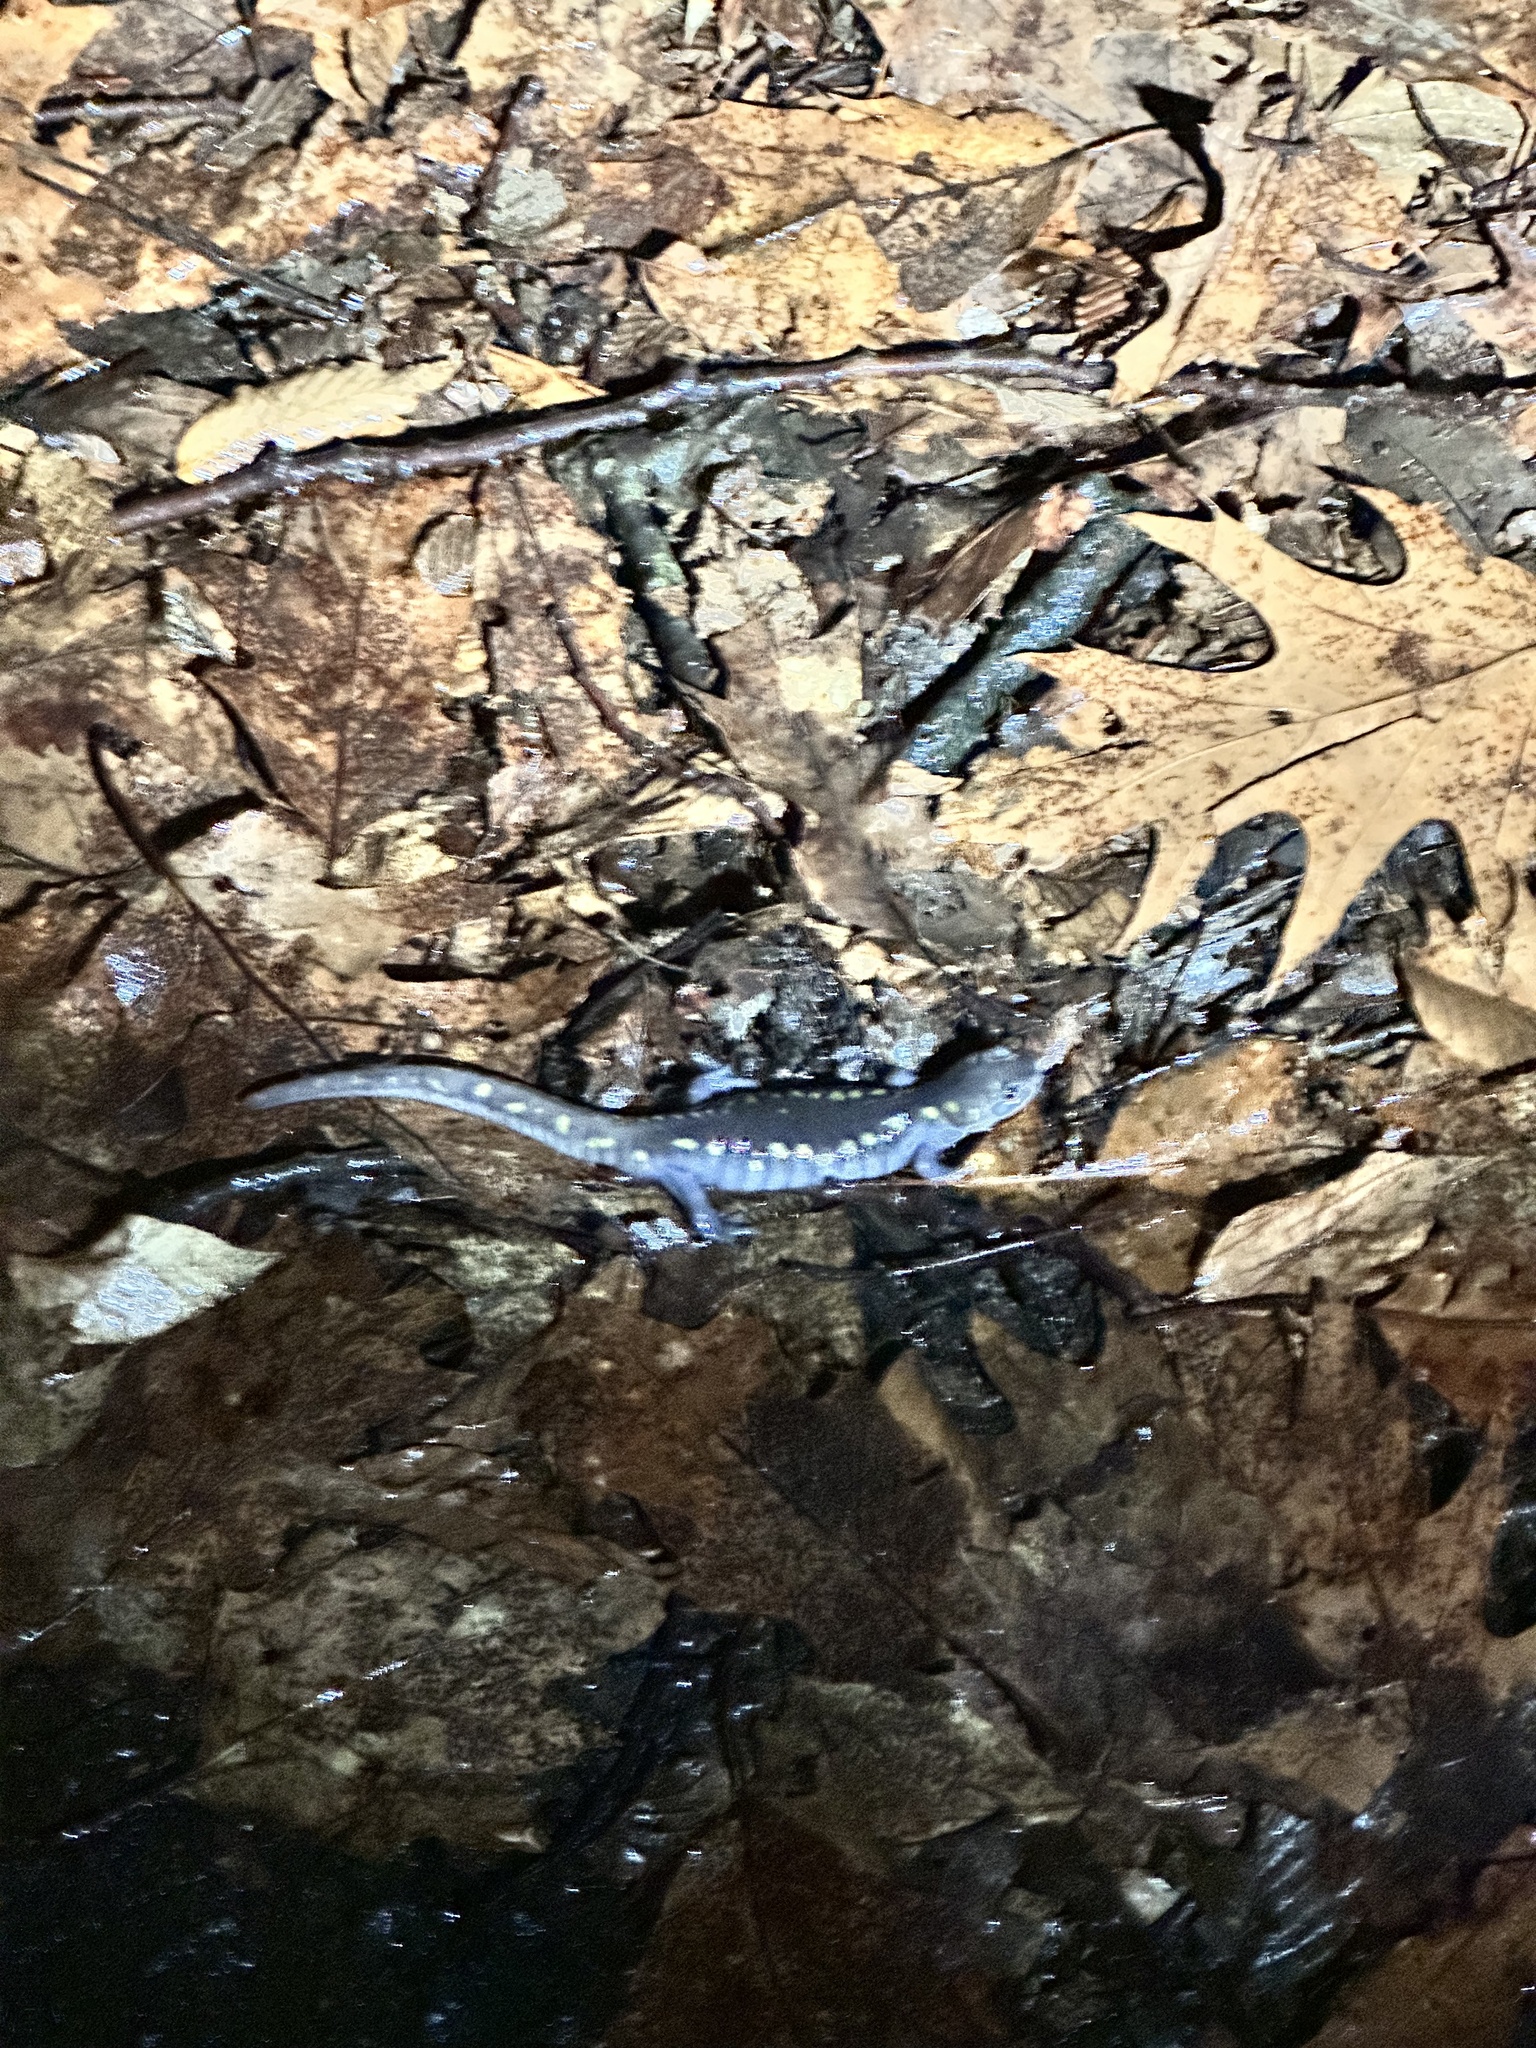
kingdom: Animalia
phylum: Chordata
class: Amphibia
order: Caudata
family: Ambystomatidae
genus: Ambystoma
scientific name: Ambystoma maculatum
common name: Spotted salamander
